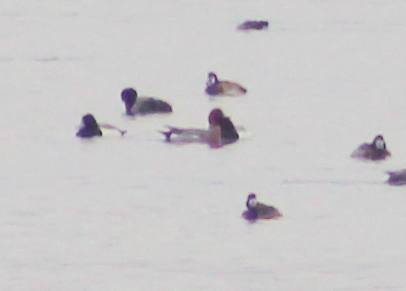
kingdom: Animalia
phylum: Chordata
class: Aves
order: Anseriformes
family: Anatidae
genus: Mareca
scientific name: Mareca penelope
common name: Eurasian wigeon
